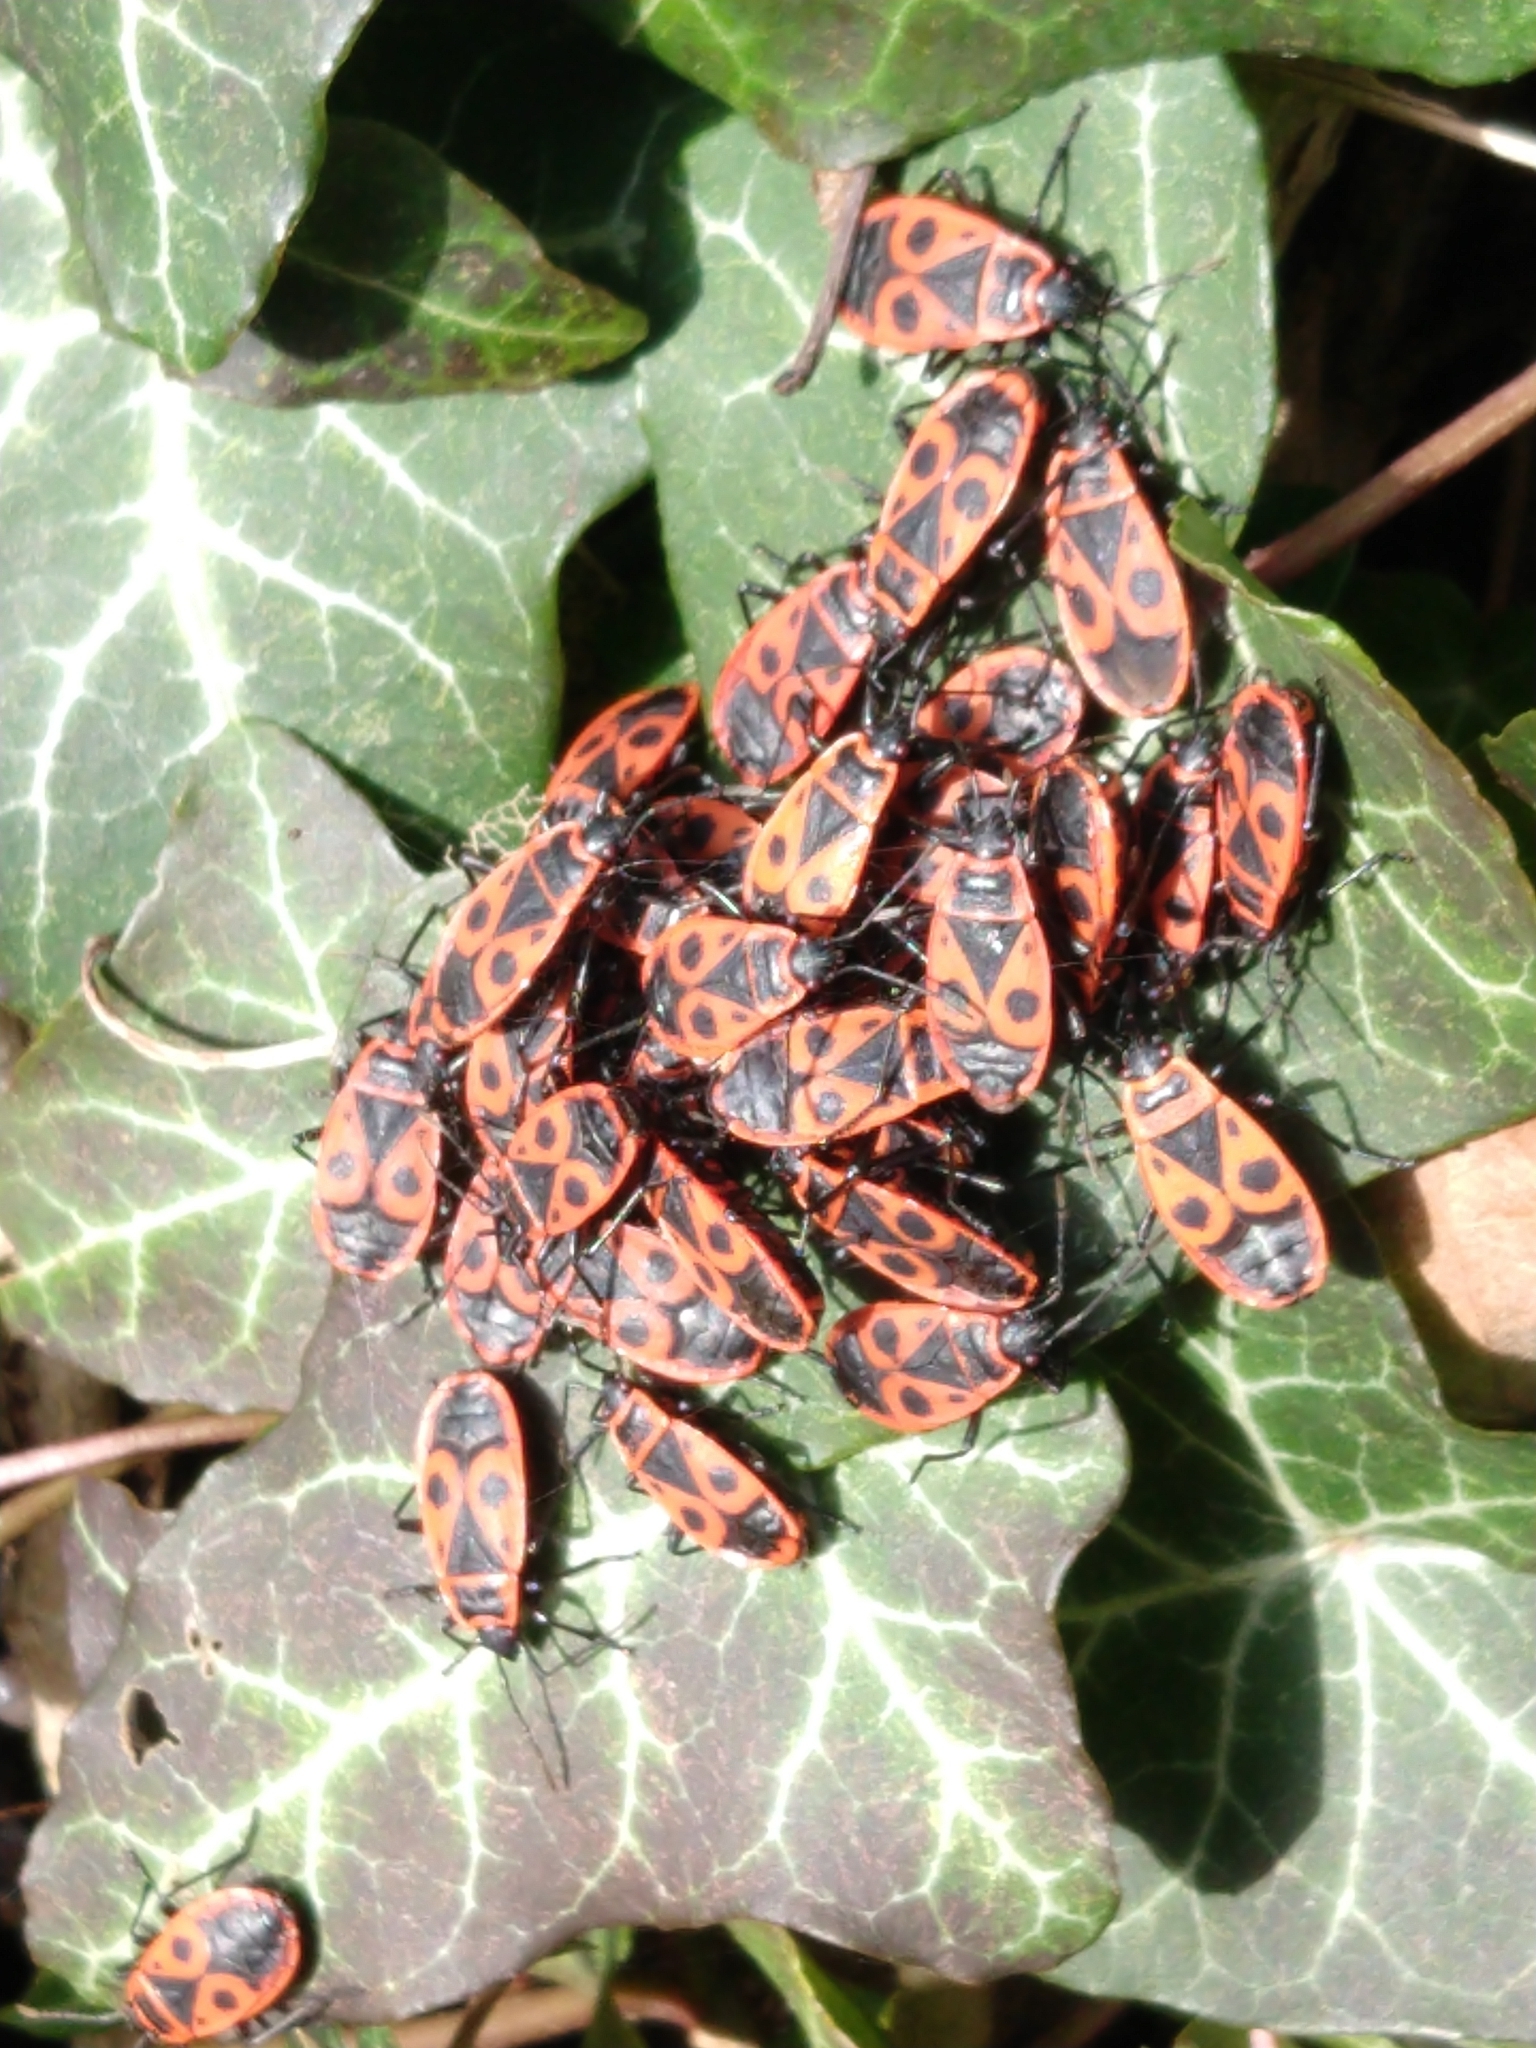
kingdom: Animalia
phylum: Arthropoda
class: Insecta
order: Hemiptera
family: Pyrrhocoridae
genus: Pyrrhocoris
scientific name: Pyrrhocoris apterus
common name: Firebug
